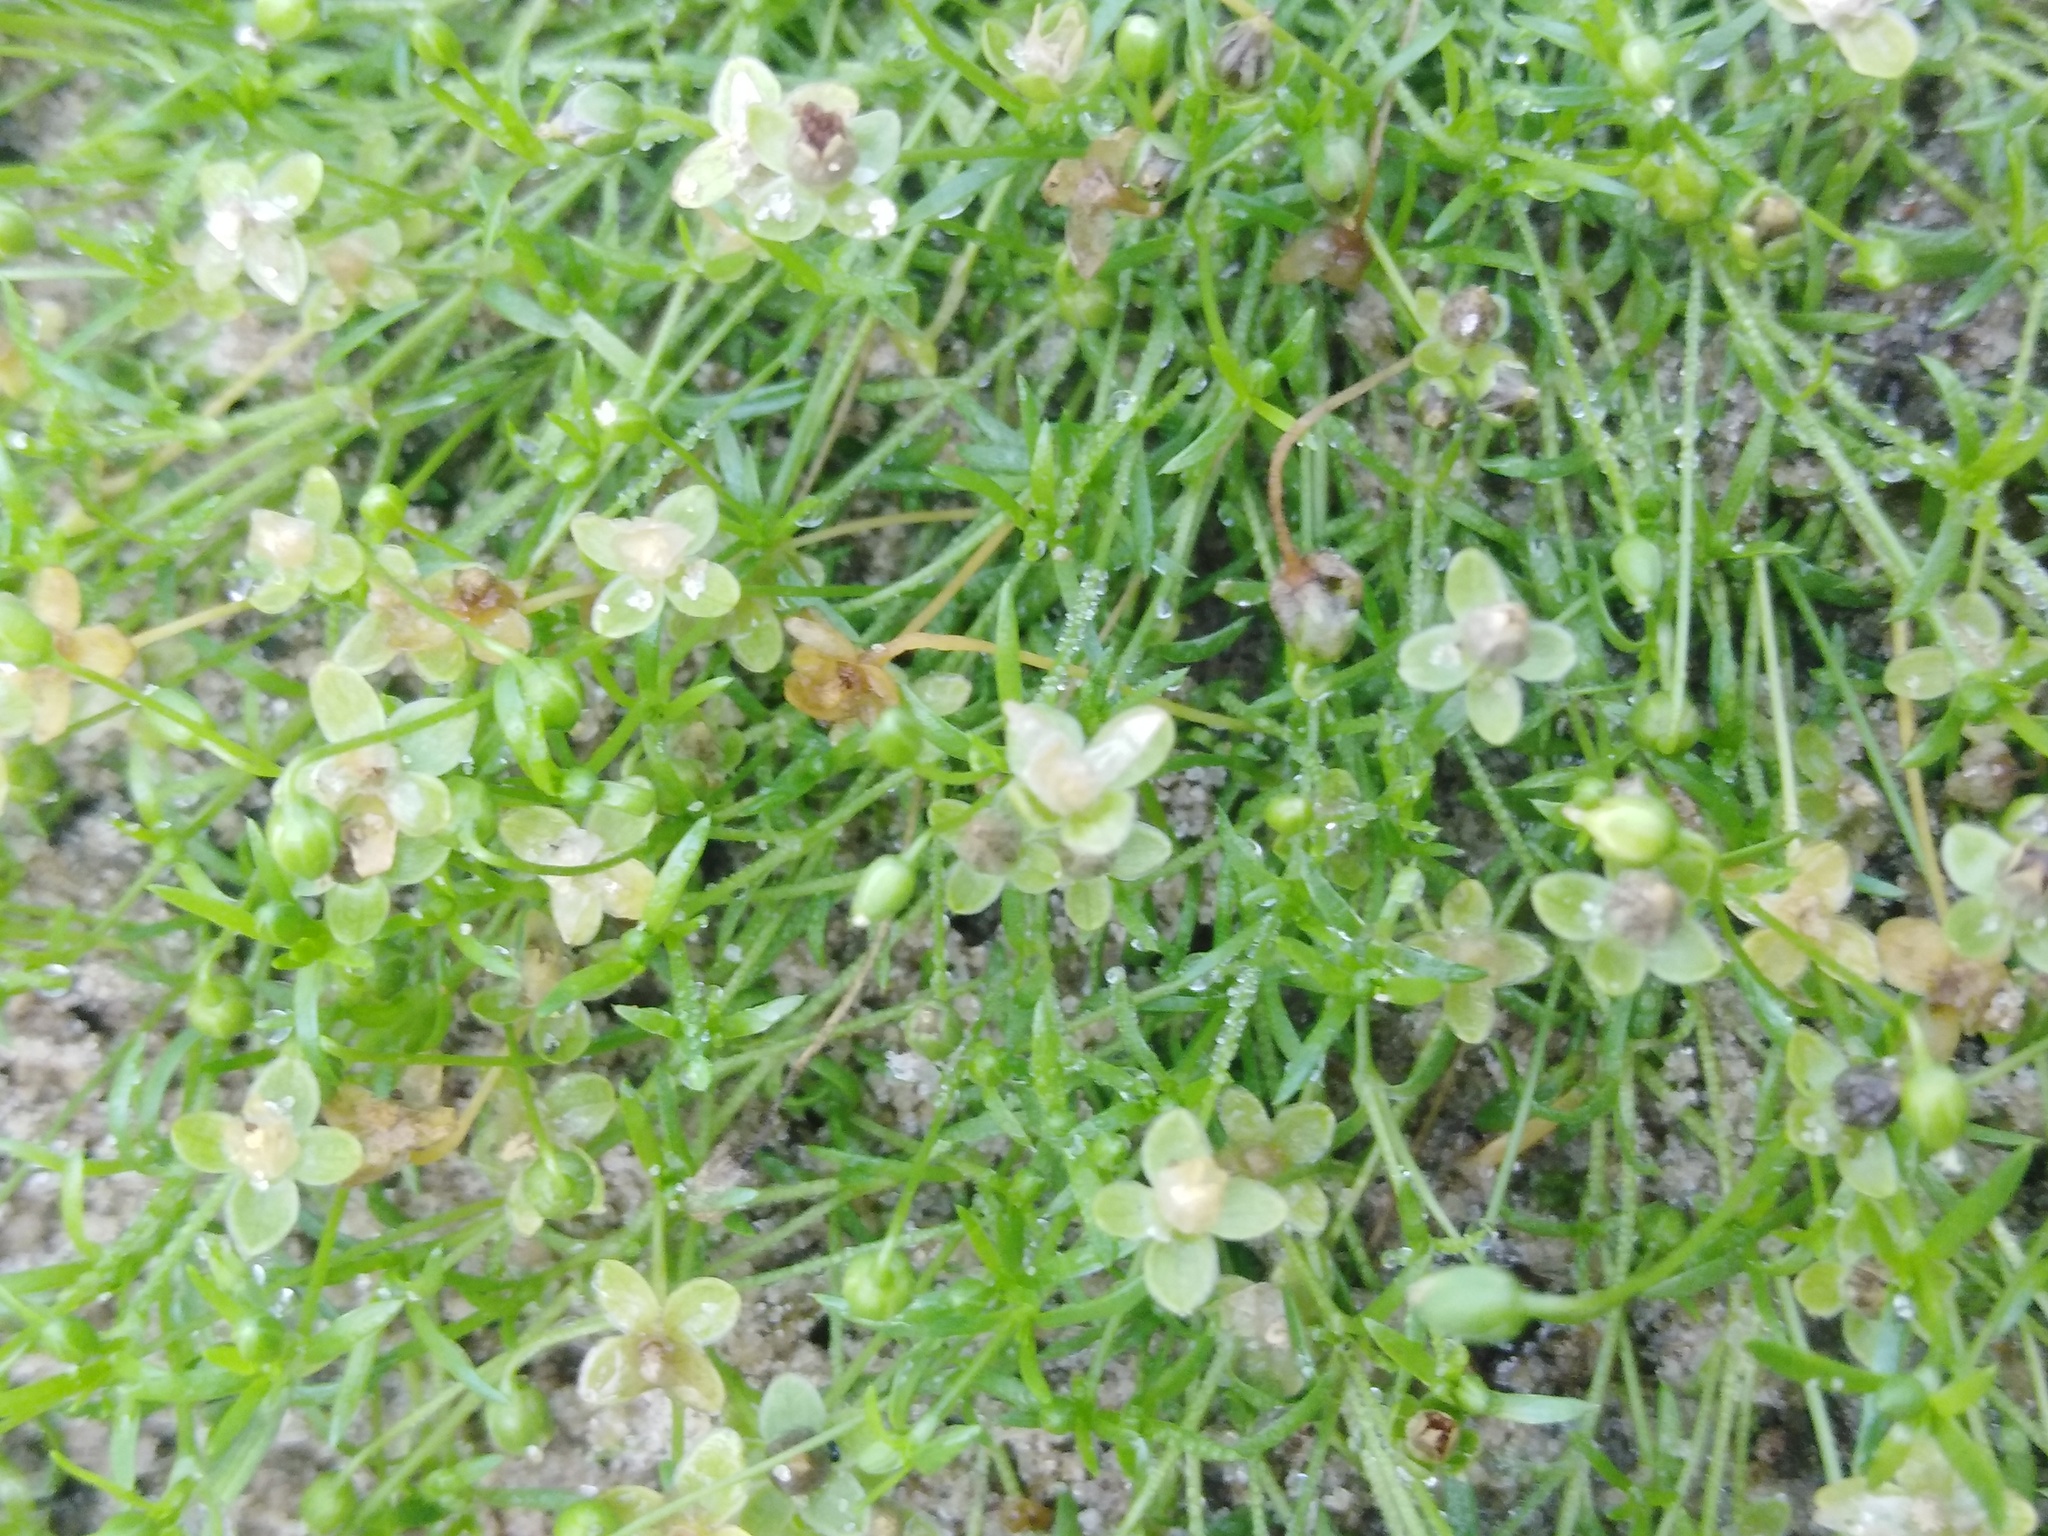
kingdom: Plantae
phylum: Tracheophyta
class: Magnoliopsida
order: Caryophyllales
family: Caryophyllaceae
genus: Sagina
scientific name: Sagina procumbens
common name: Procumbent pearlwort
